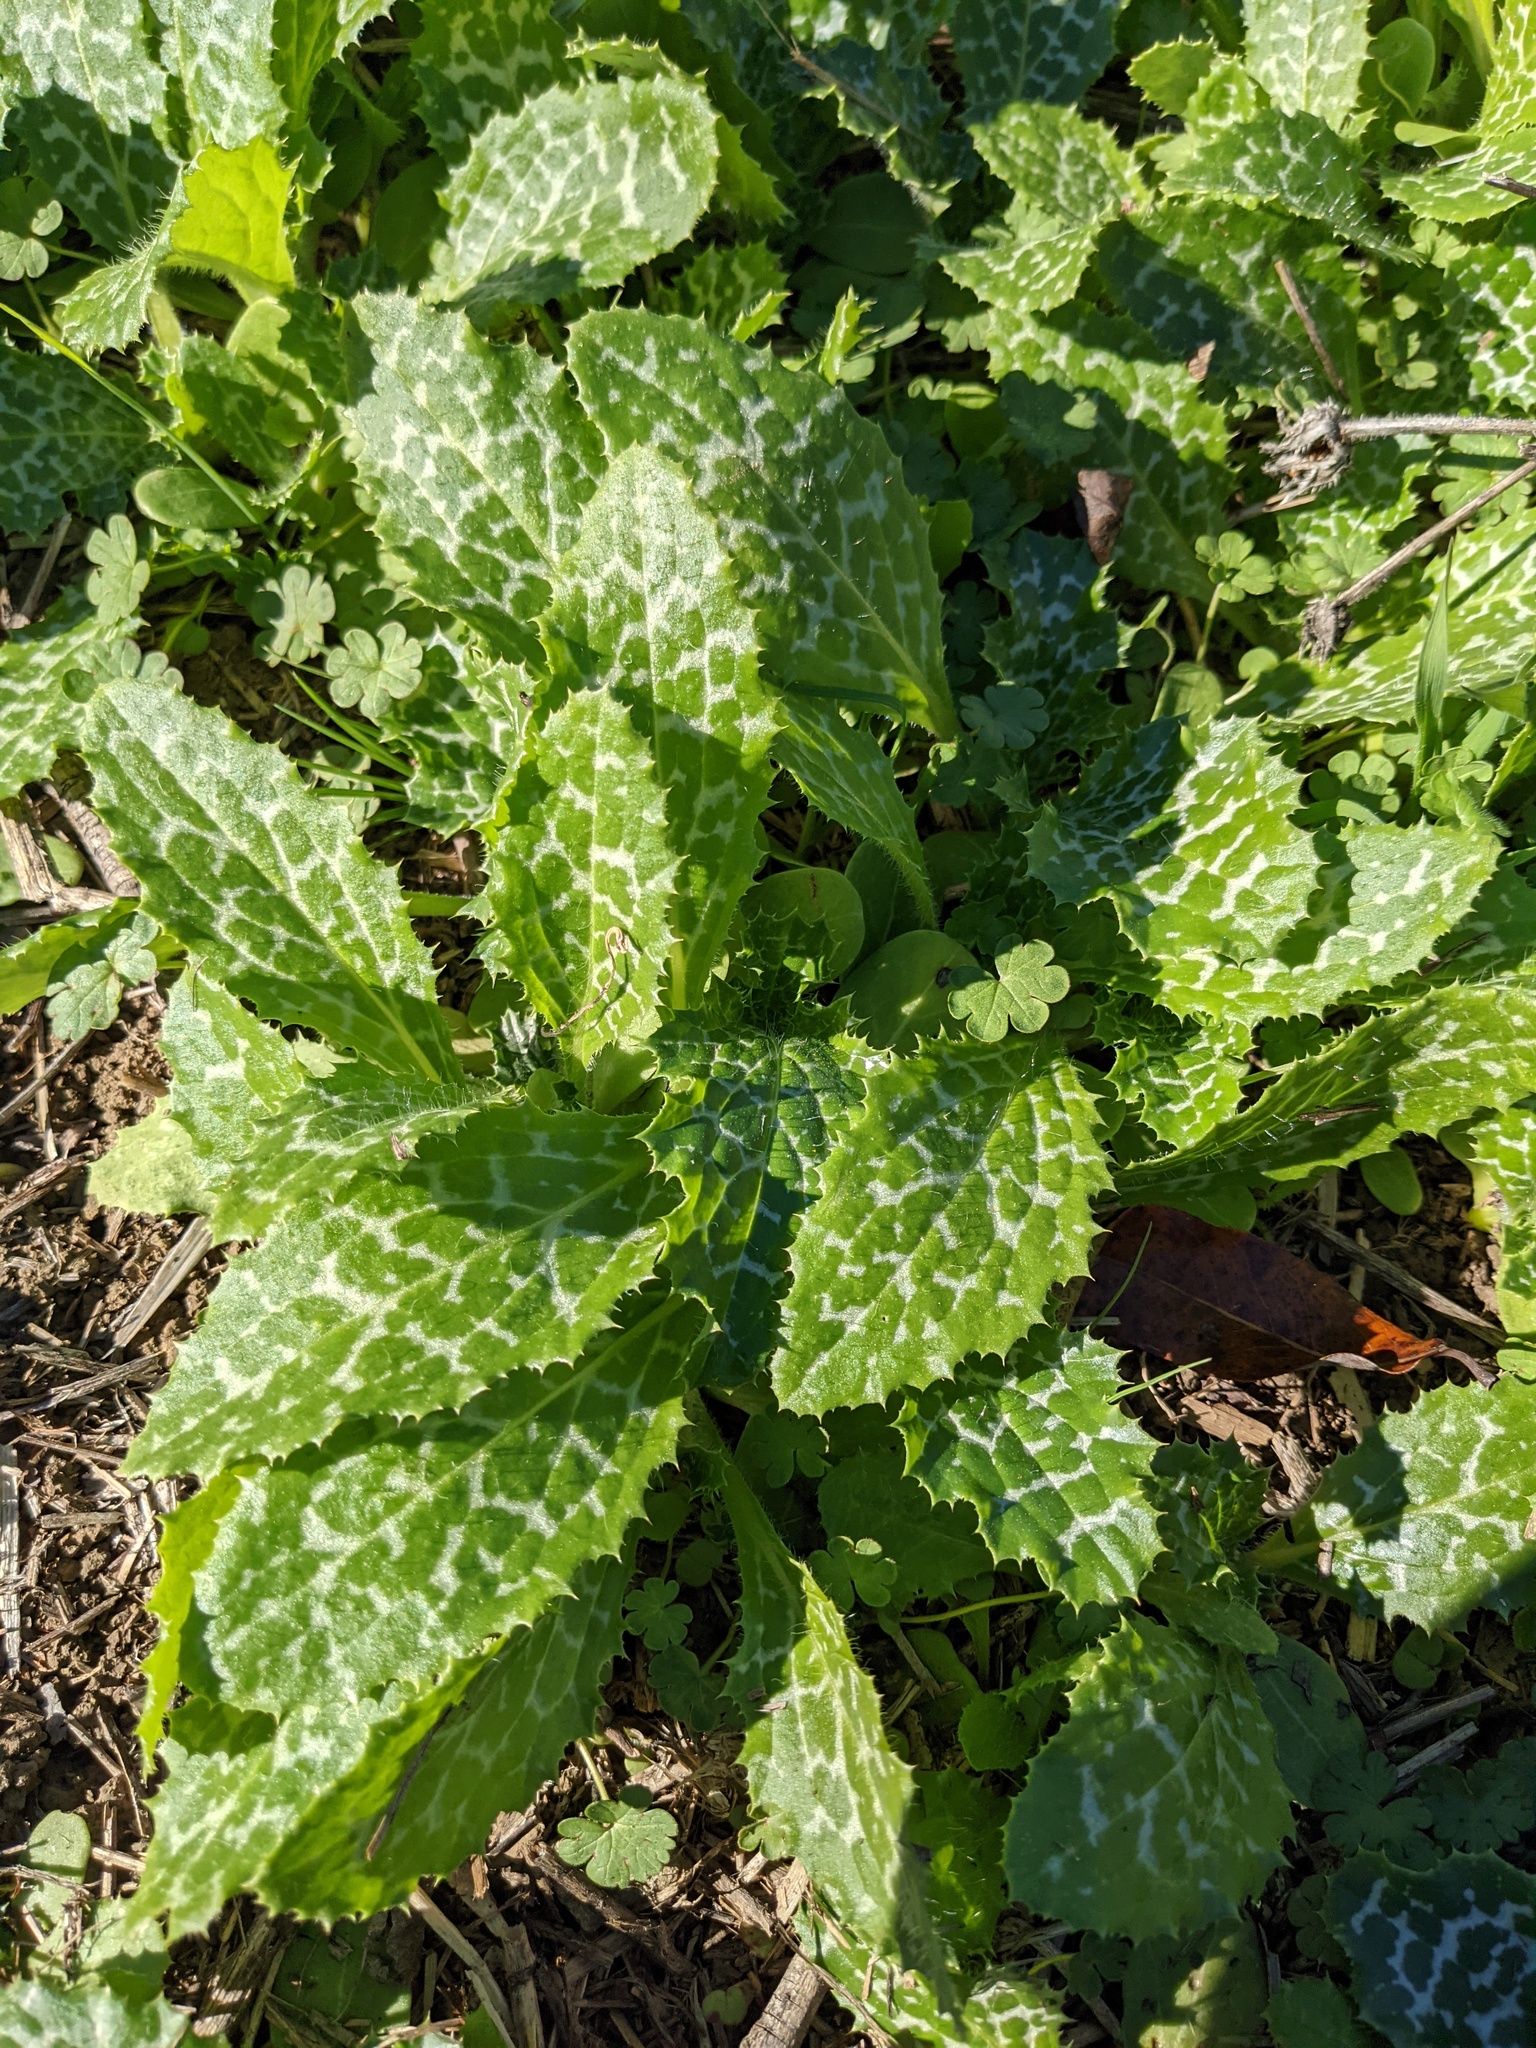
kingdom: Plantae
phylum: Tracheophyta
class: Magnoliopsida
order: Asterales
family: Asteraceae
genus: Silybum
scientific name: Silybum marianum
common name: Milk thistle
